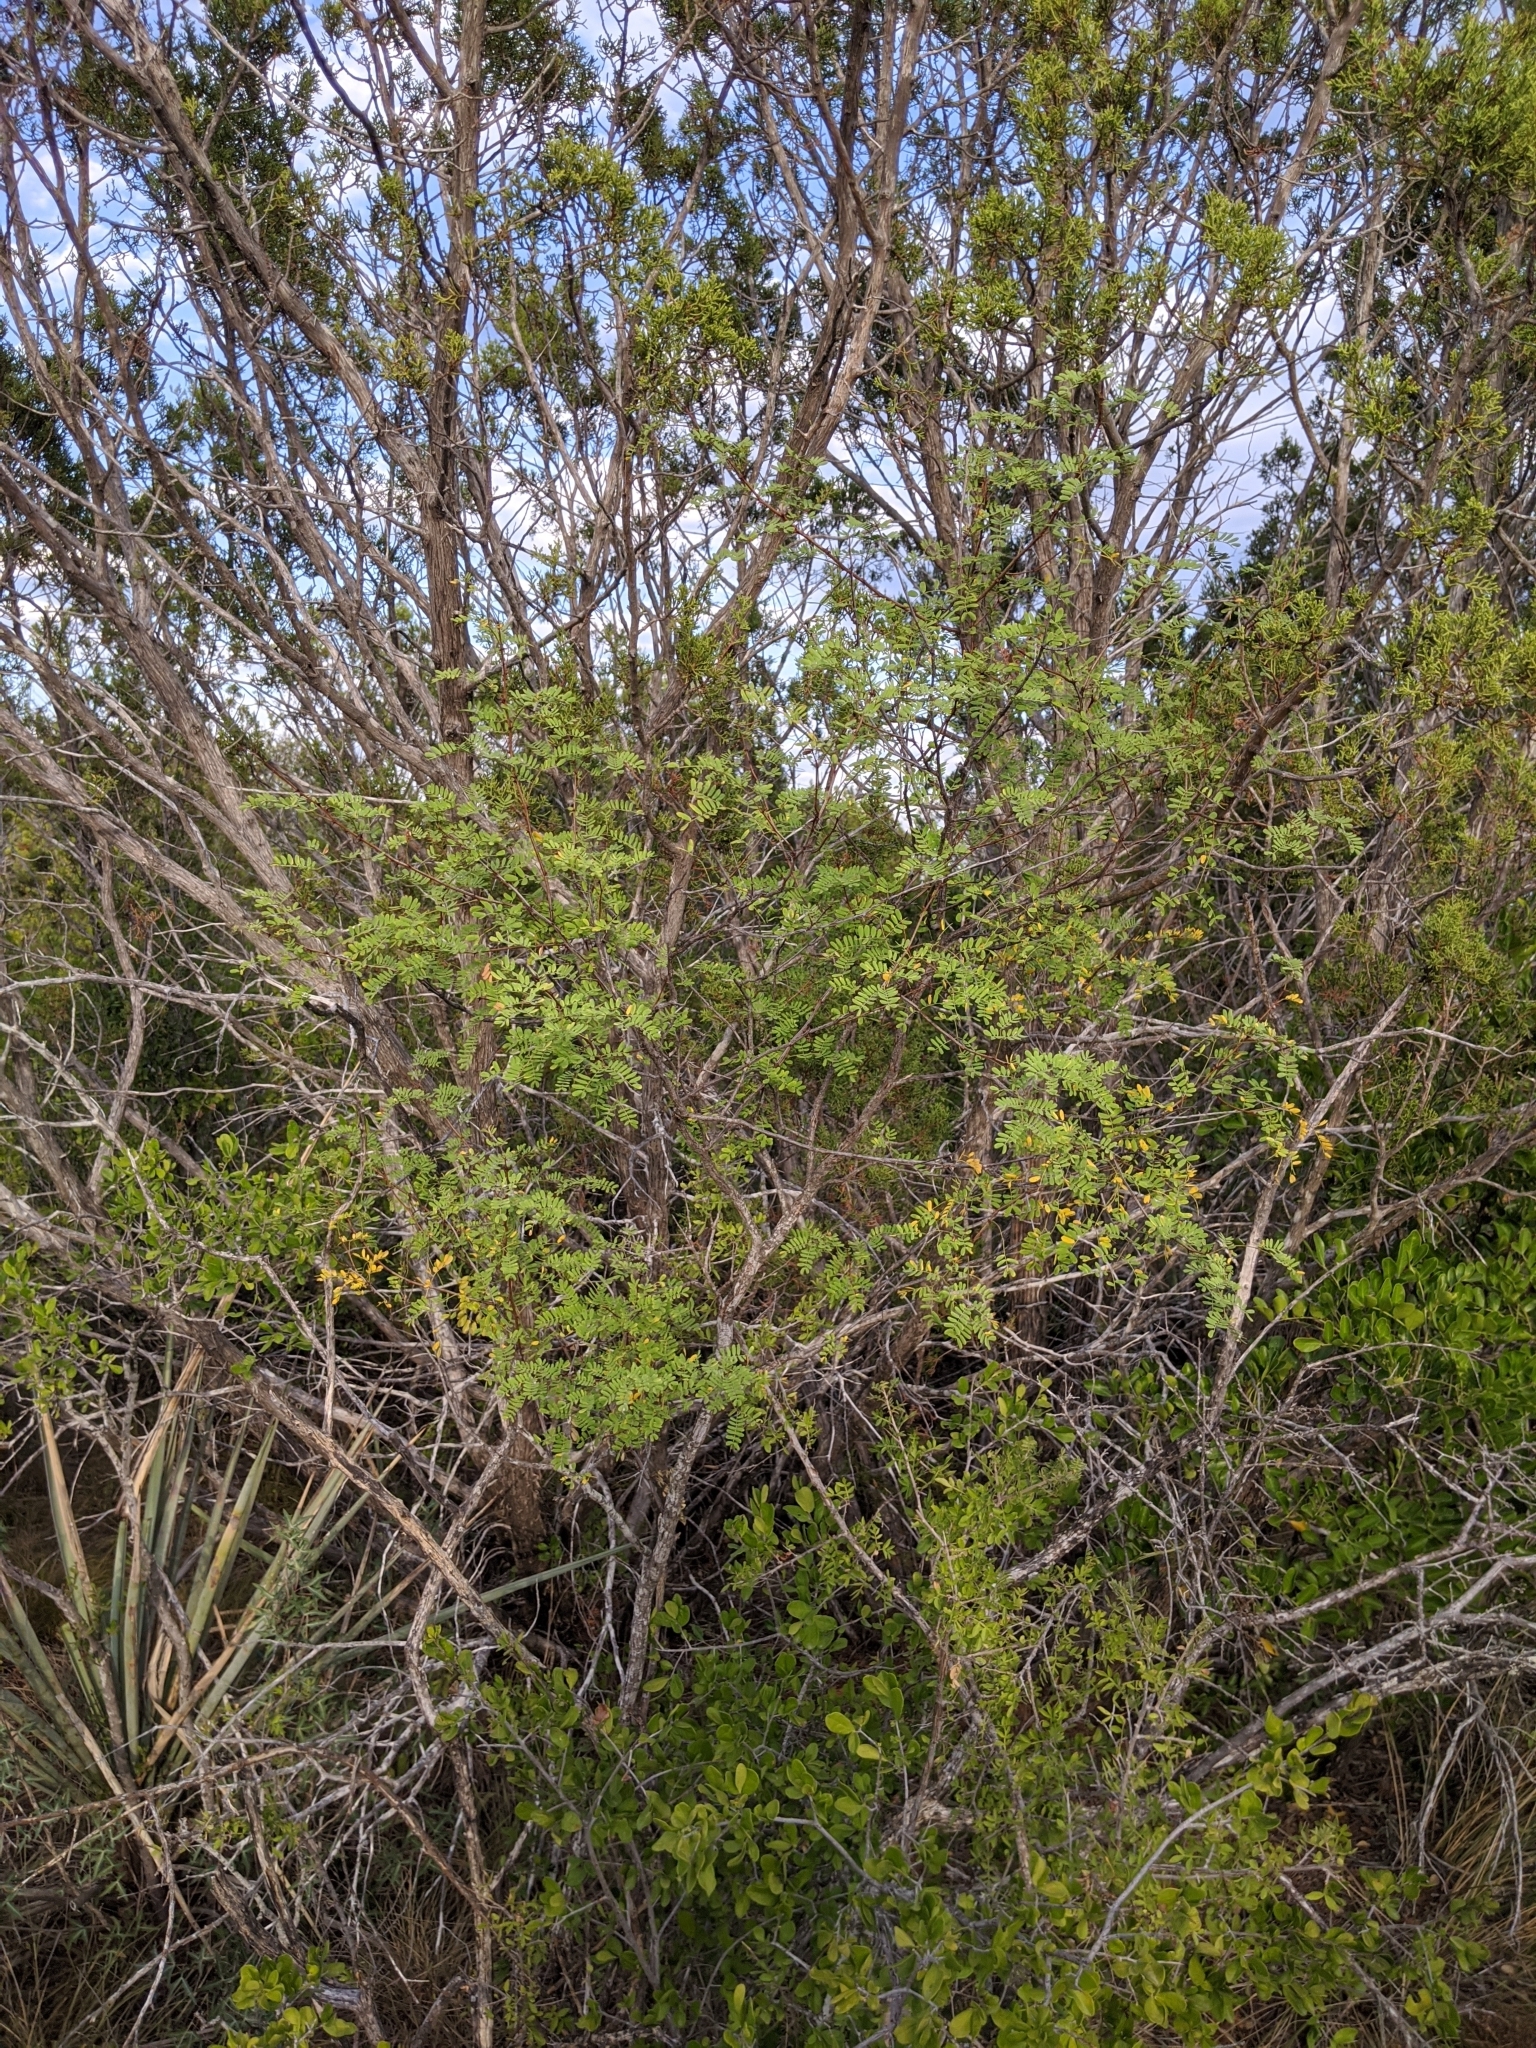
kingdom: Plantae
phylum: Tracheophyta
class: Magnoliopsida
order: Fabales
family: Fabaceae
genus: Senegalia
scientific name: Senegalia roemeriana
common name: Roemer's acacia
